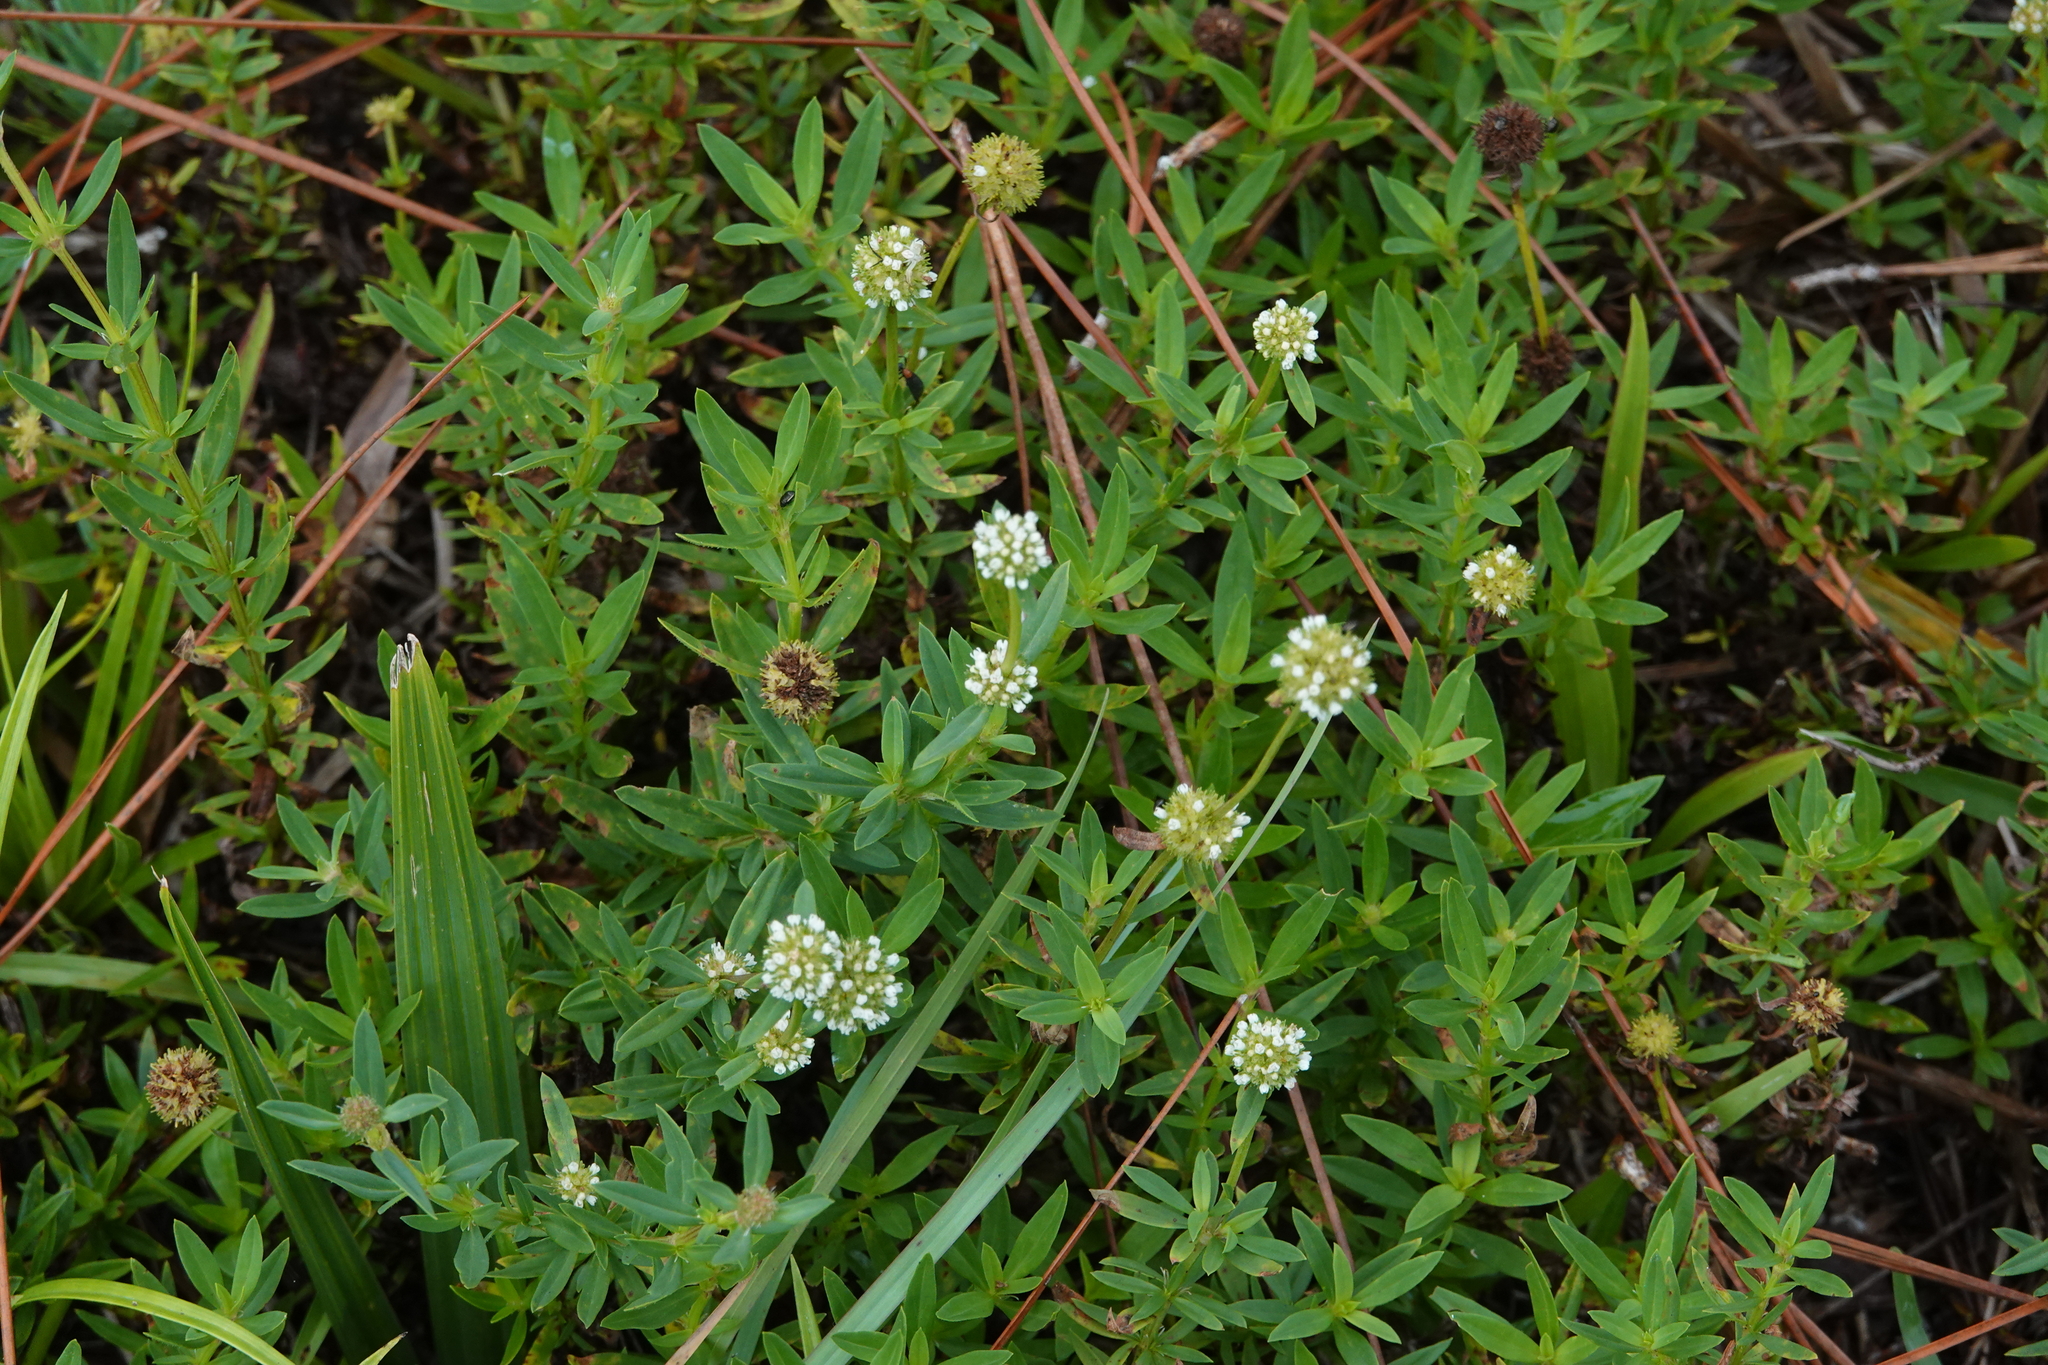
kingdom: Plantae
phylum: Tracheophyta
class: Magnoliopsida
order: Gentianales
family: Rubiaceae
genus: Spermacoce
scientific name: Spermacoce verticillata
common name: Shrubby false buttonweed
